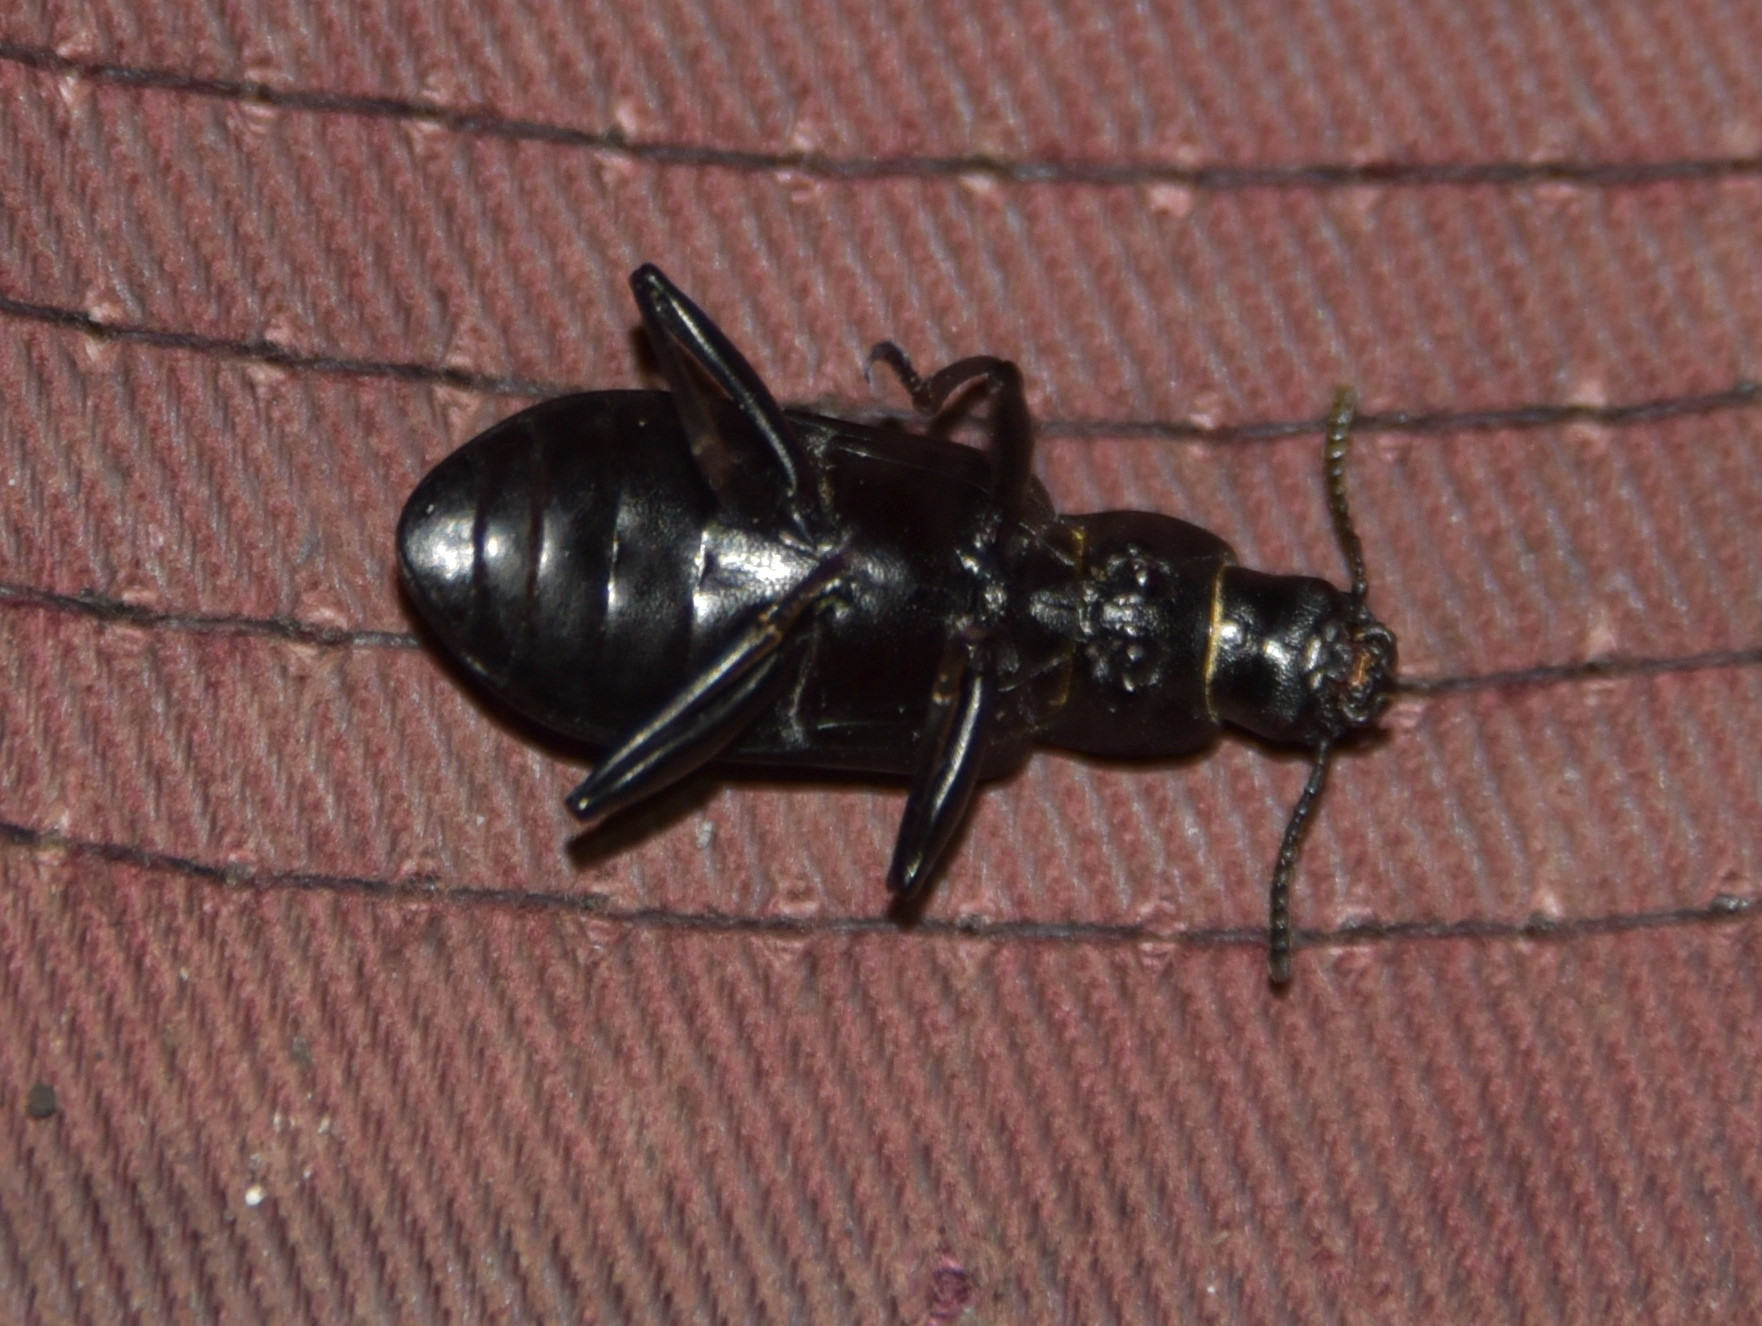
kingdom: Animalia
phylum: Arthropoda
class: Insecta
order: Coleoptera
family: Tenebrionidae
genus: Alobates
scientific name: Alobates pensylvanicus
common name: False mealworm beetle
